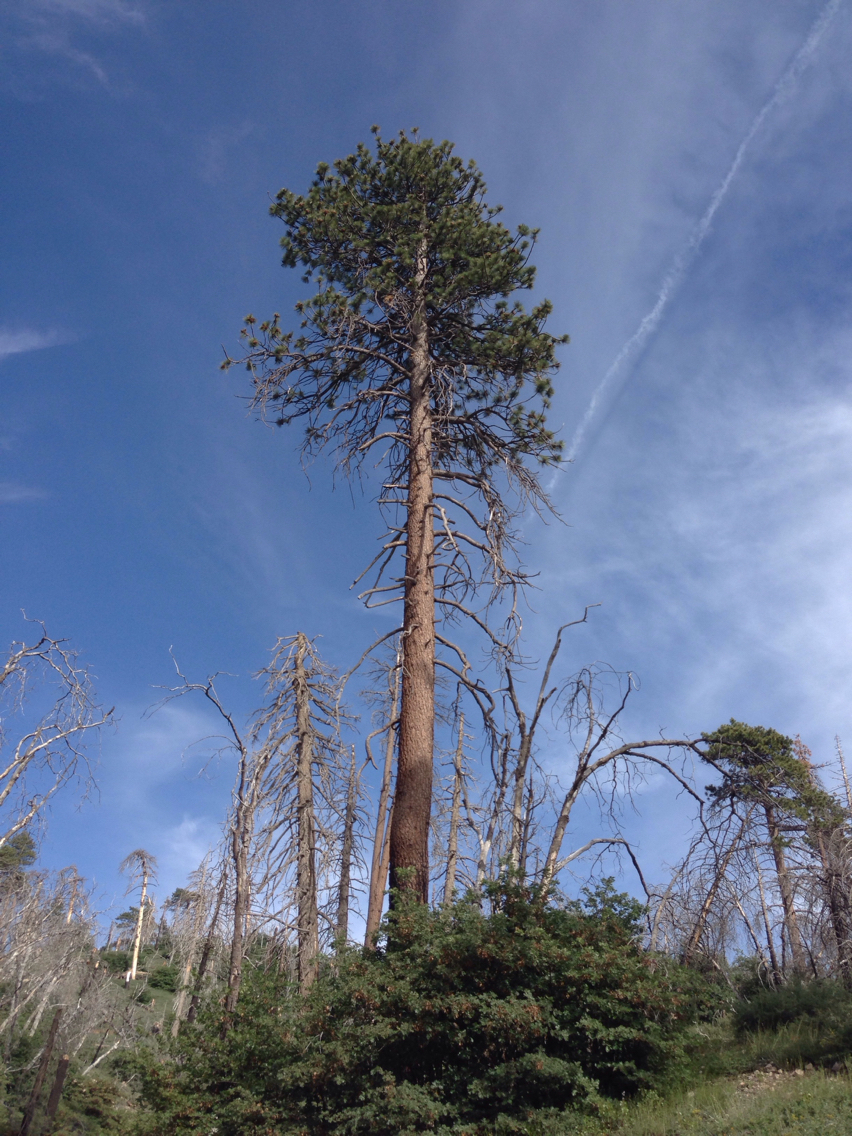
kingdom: Plantae
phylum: Tracheophyta
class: Pinopsida
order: Pinales
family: Pinaceae
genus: Pinus
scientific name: Pinus jeffreyi
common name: Jeffrey pine
